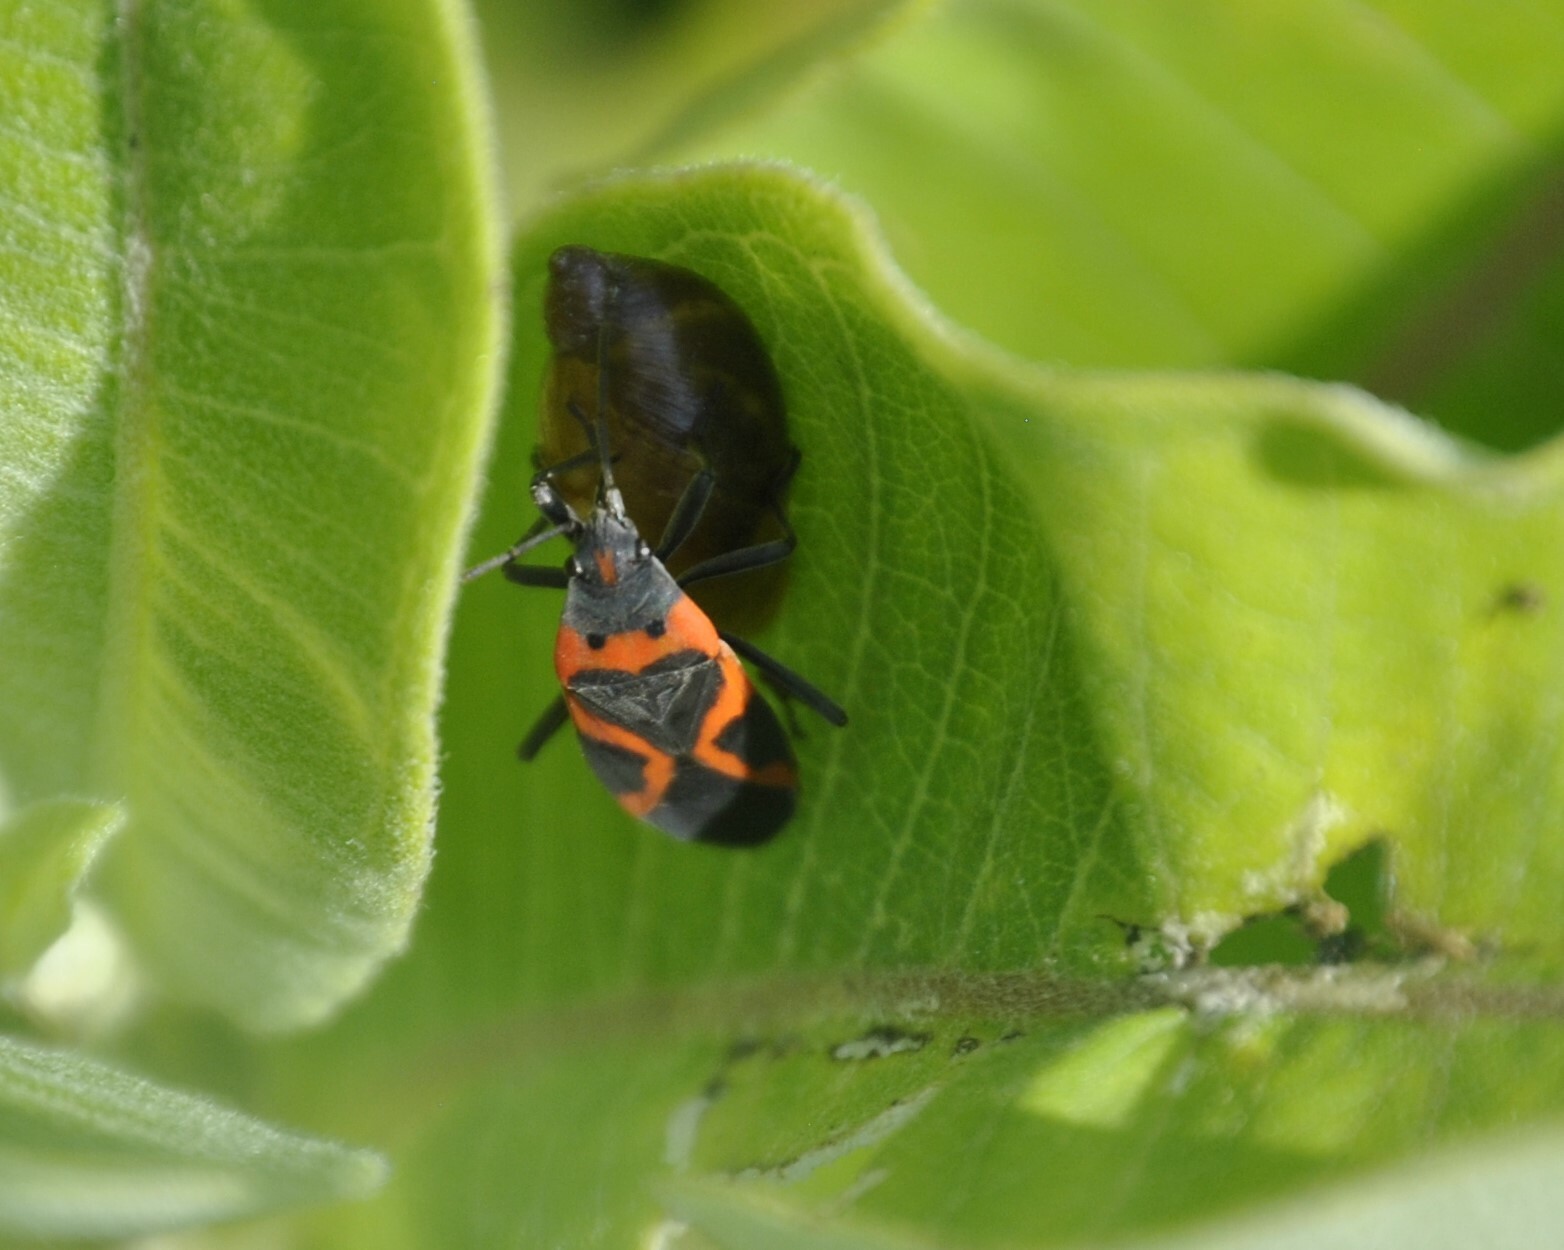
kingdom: Animalia
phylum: Arthropoda
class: Insecta
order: Hemiptera
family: Lygaeidae
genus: Lygaeus
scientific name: Lygaeus kalmii
